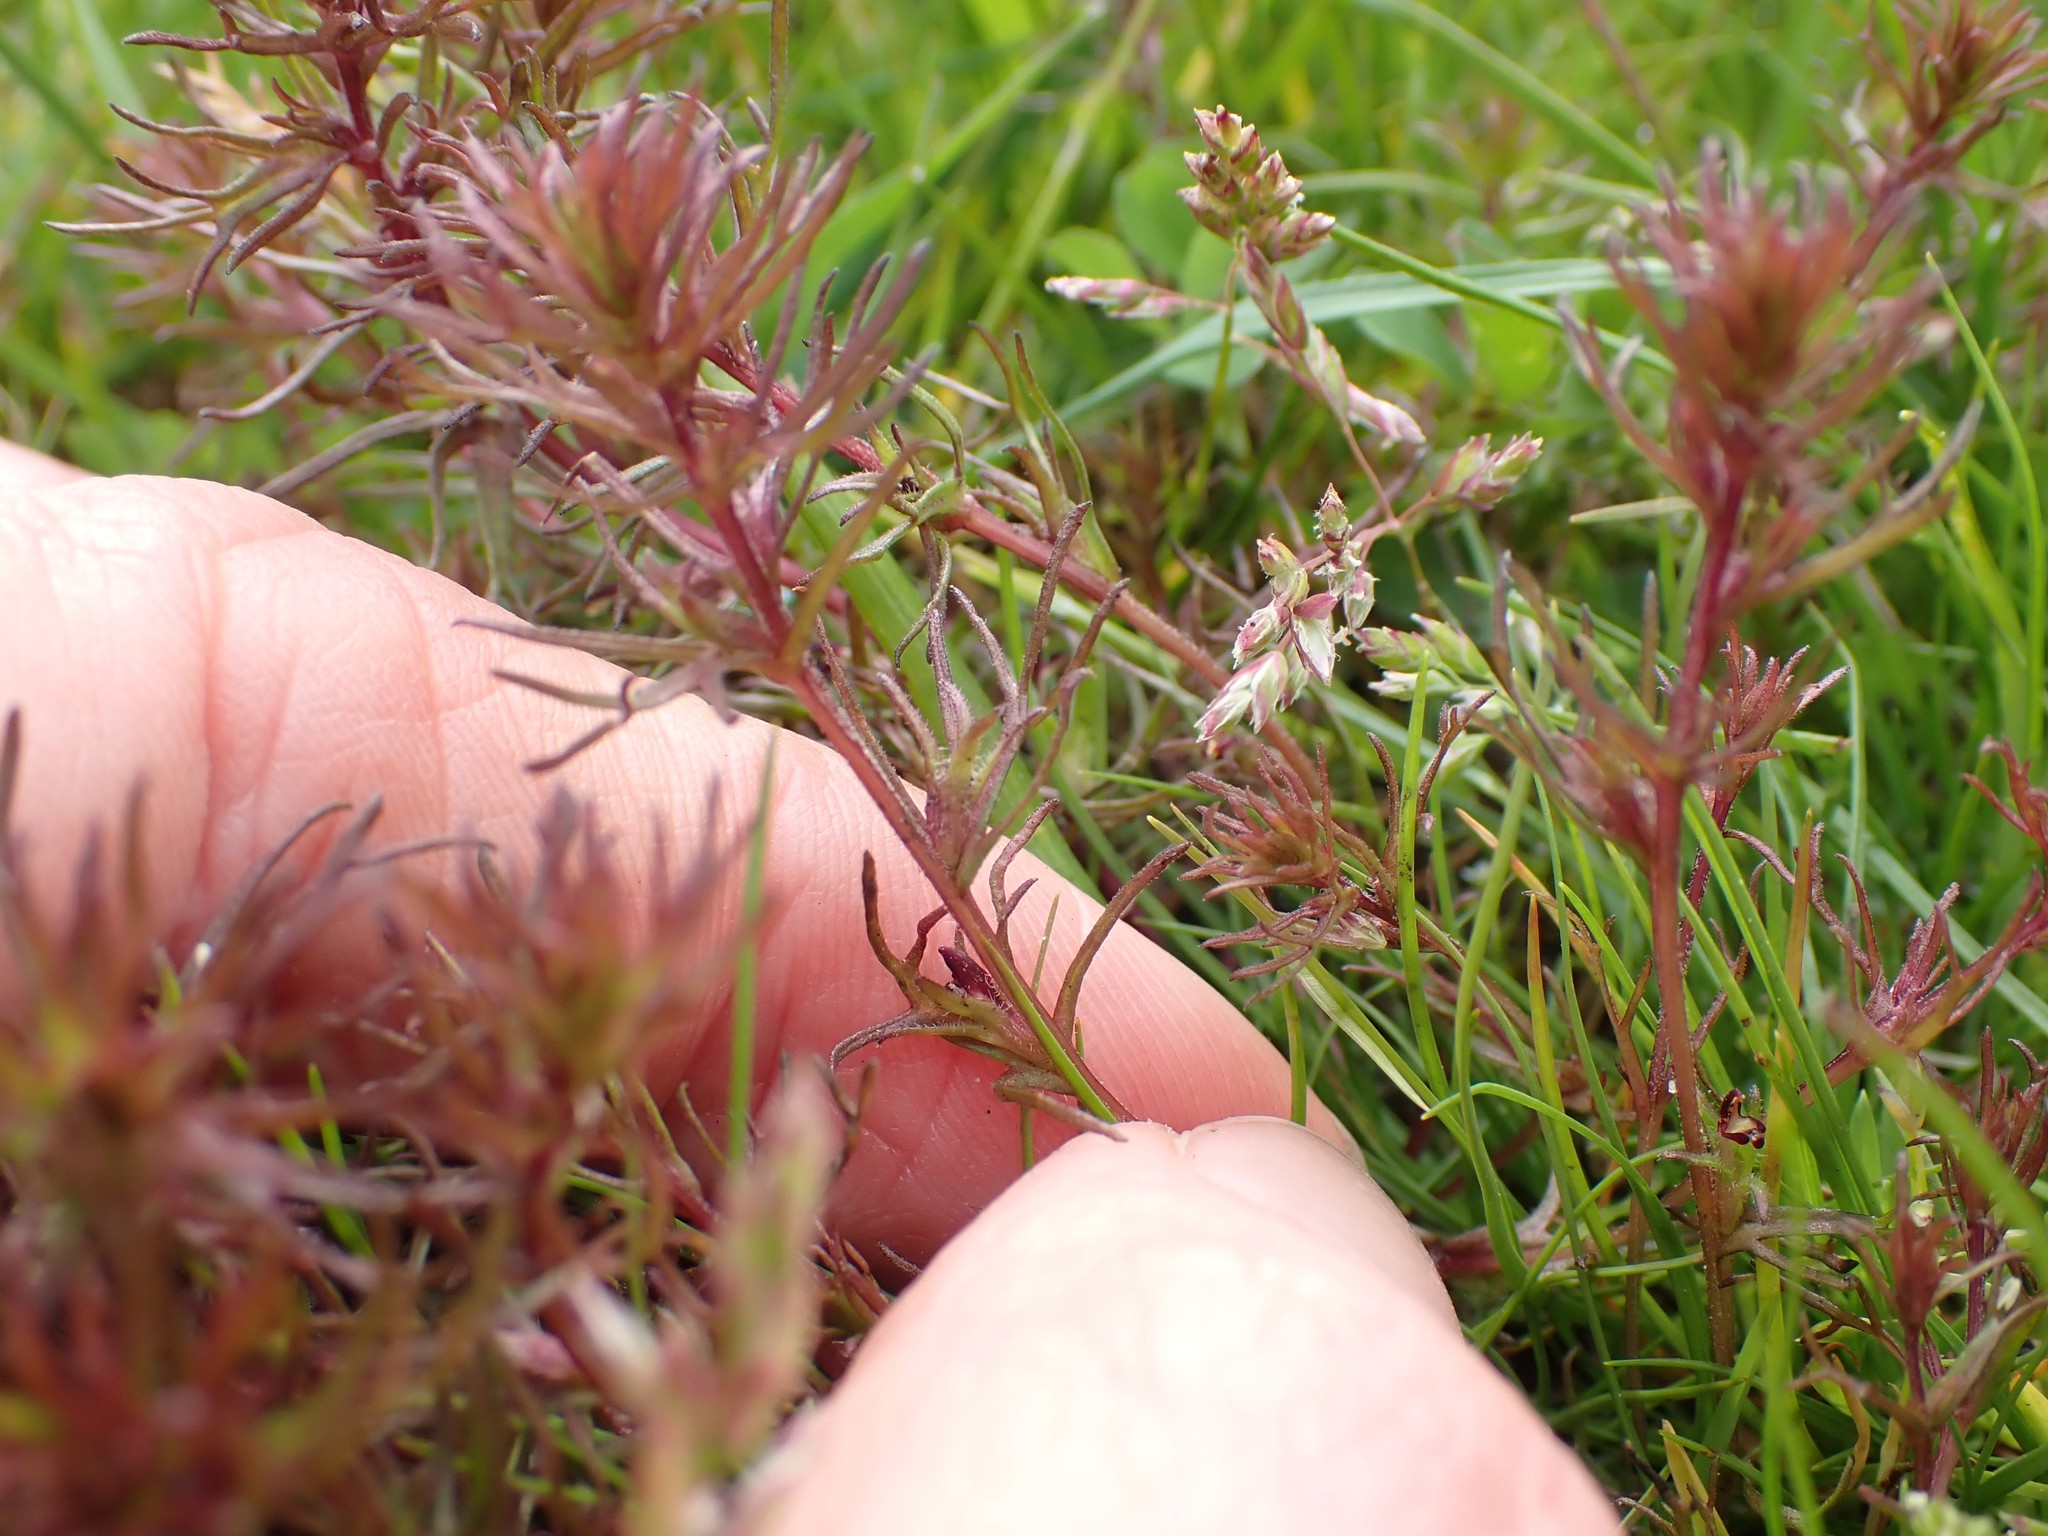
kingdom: Plantae
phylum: Tracheophyta
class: Magnoliopsida
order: Lamiales
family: Orobanchaceae
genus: Triphysaria
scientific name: Triphysaria pusilla
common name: Dwarf false owl-clover
